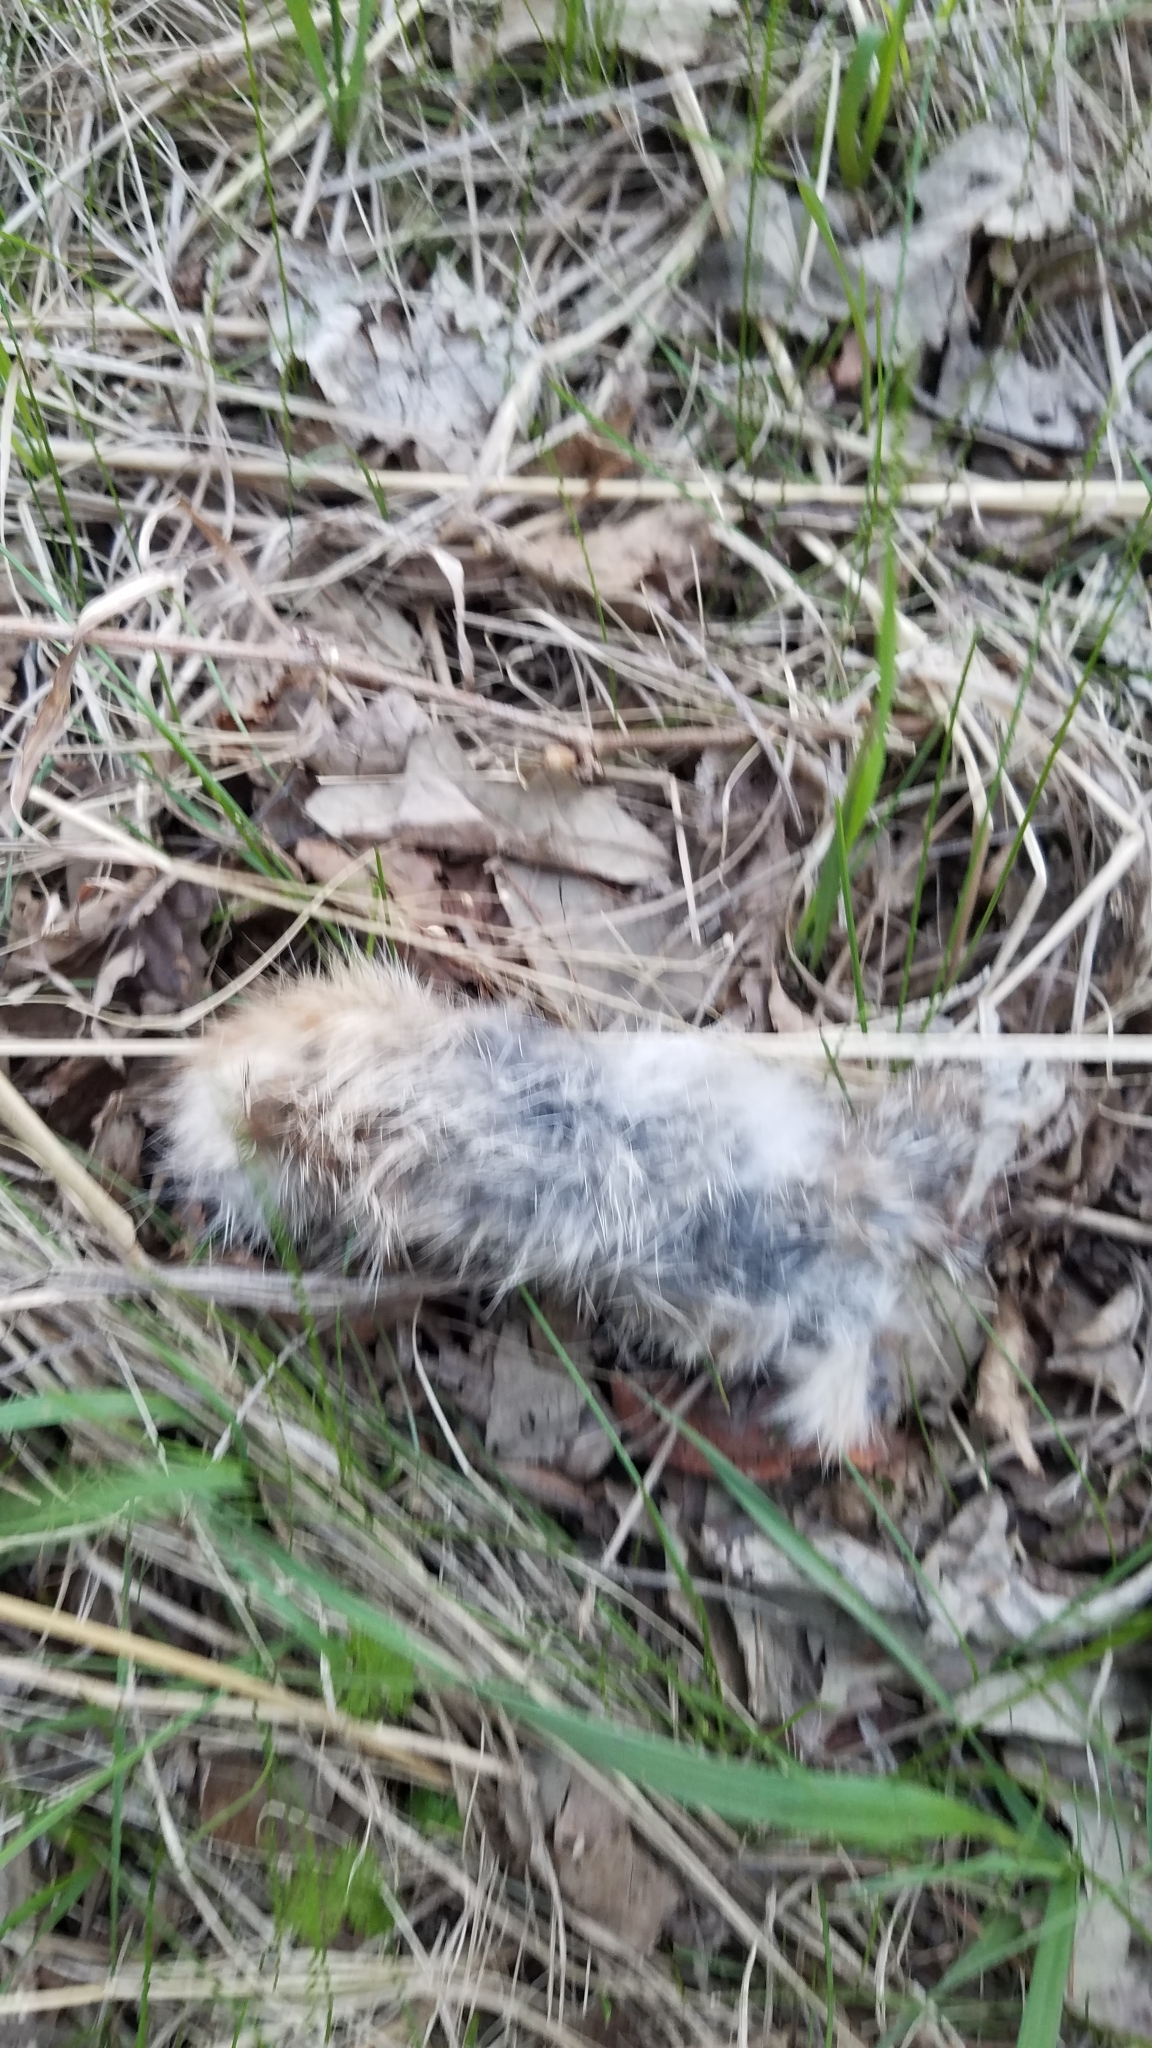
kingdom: Animalia
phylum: Chordata
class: Mammalia
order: Lagomorpha
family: Leporidae
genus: Sylvilagus
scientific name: Sylvilagus floridanus
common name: Eastern cottontail
